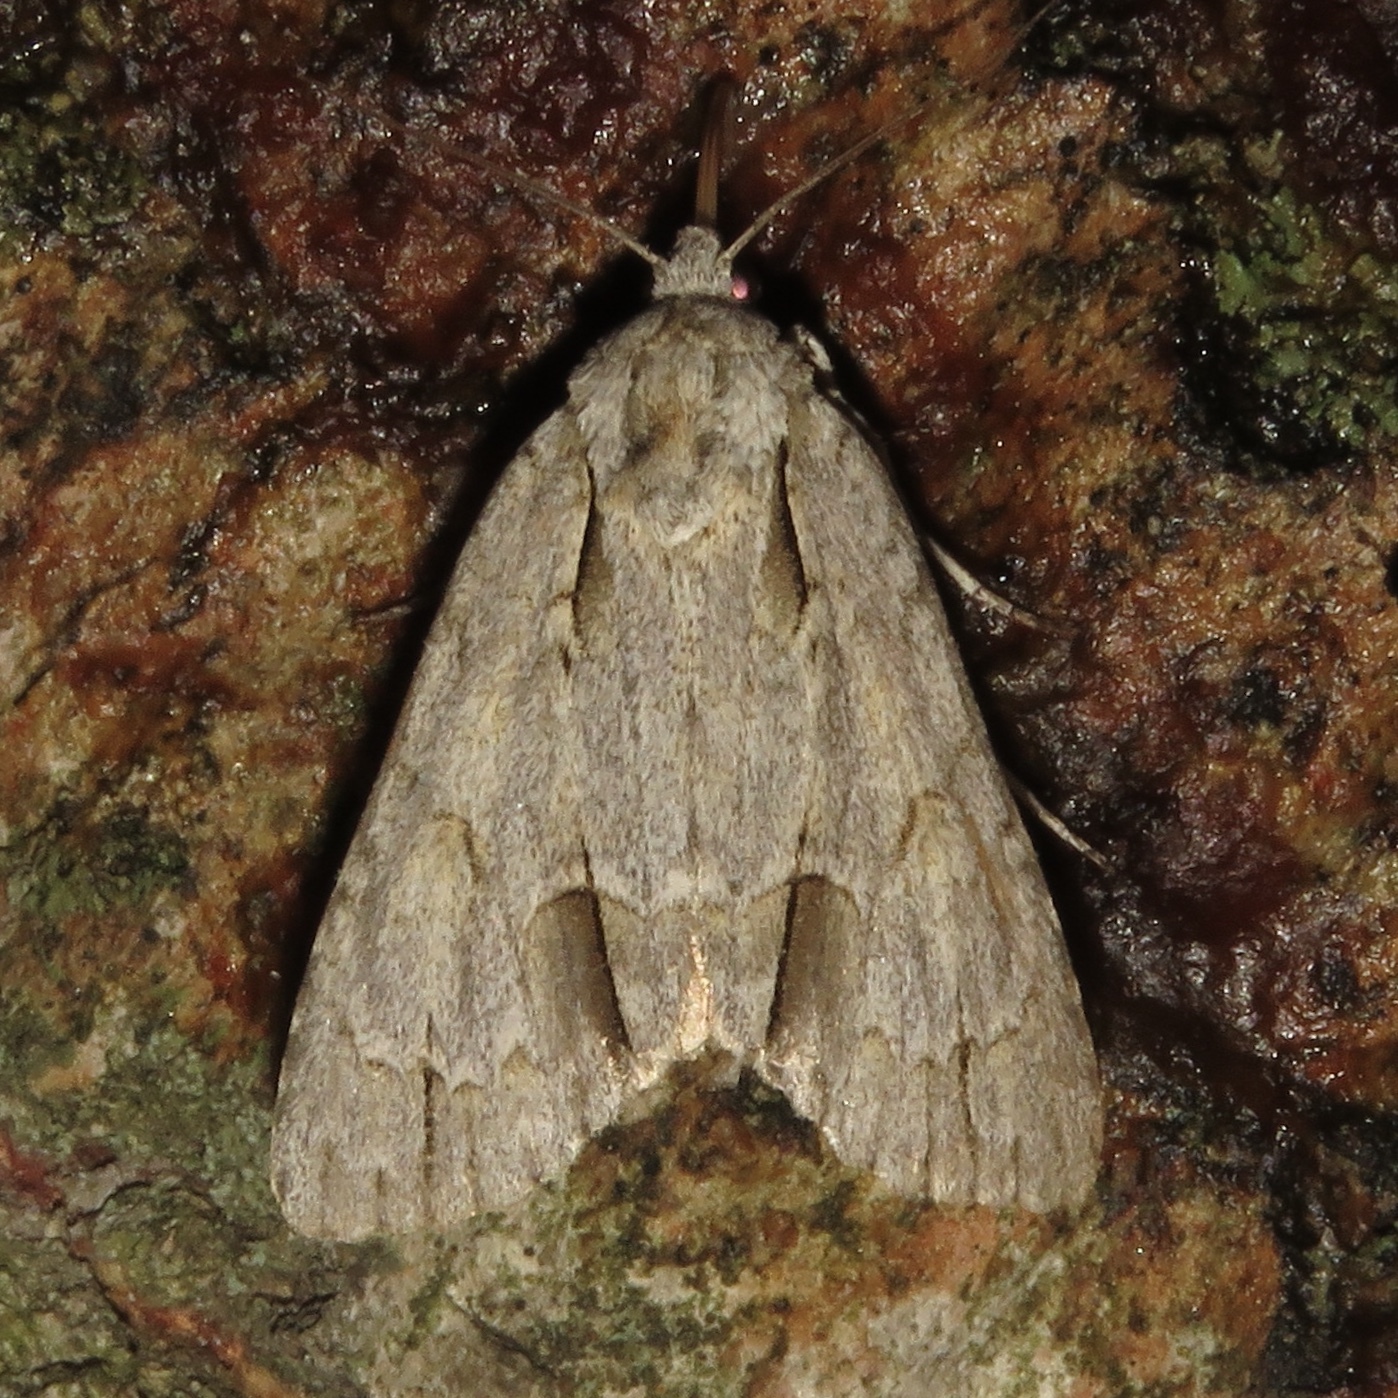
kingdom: Animalia
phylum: Arthropoda
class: Insecta
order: Lepidoptera
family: Noctuidae
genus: Acronicta
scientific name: Acronicta morula
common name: Ochre dagger
